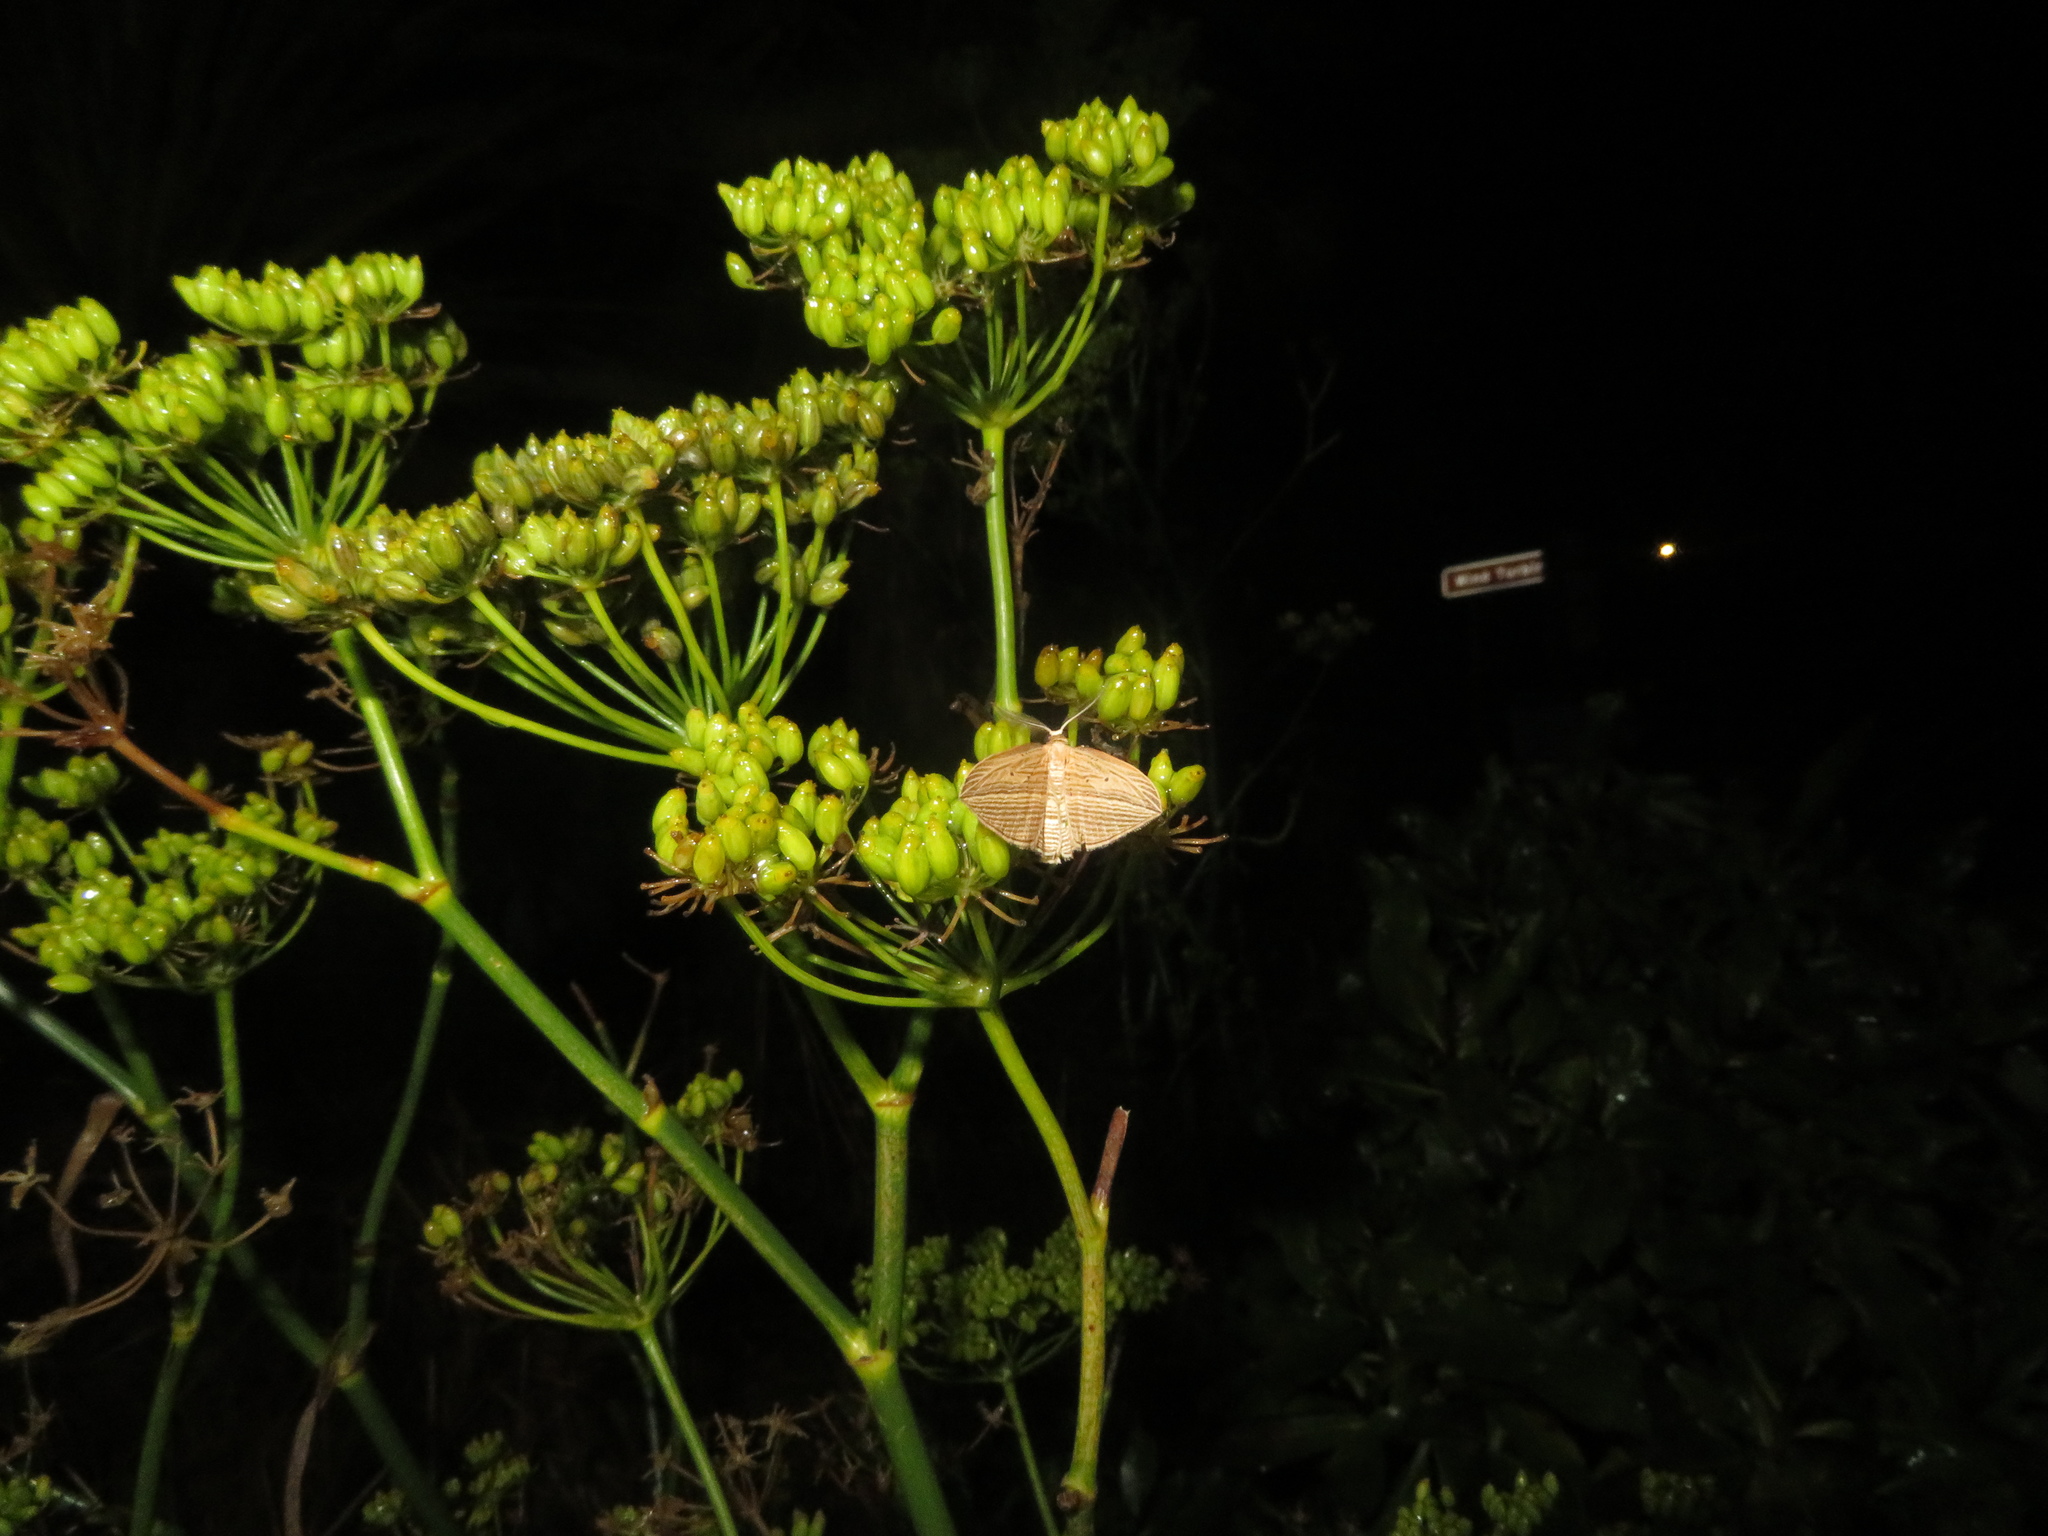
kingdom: Animalia
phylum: Arthropoda
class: Insecta
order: Lepidoptera
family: Geometridae
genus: Epiphryne
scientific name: Epiphryne verriculata
